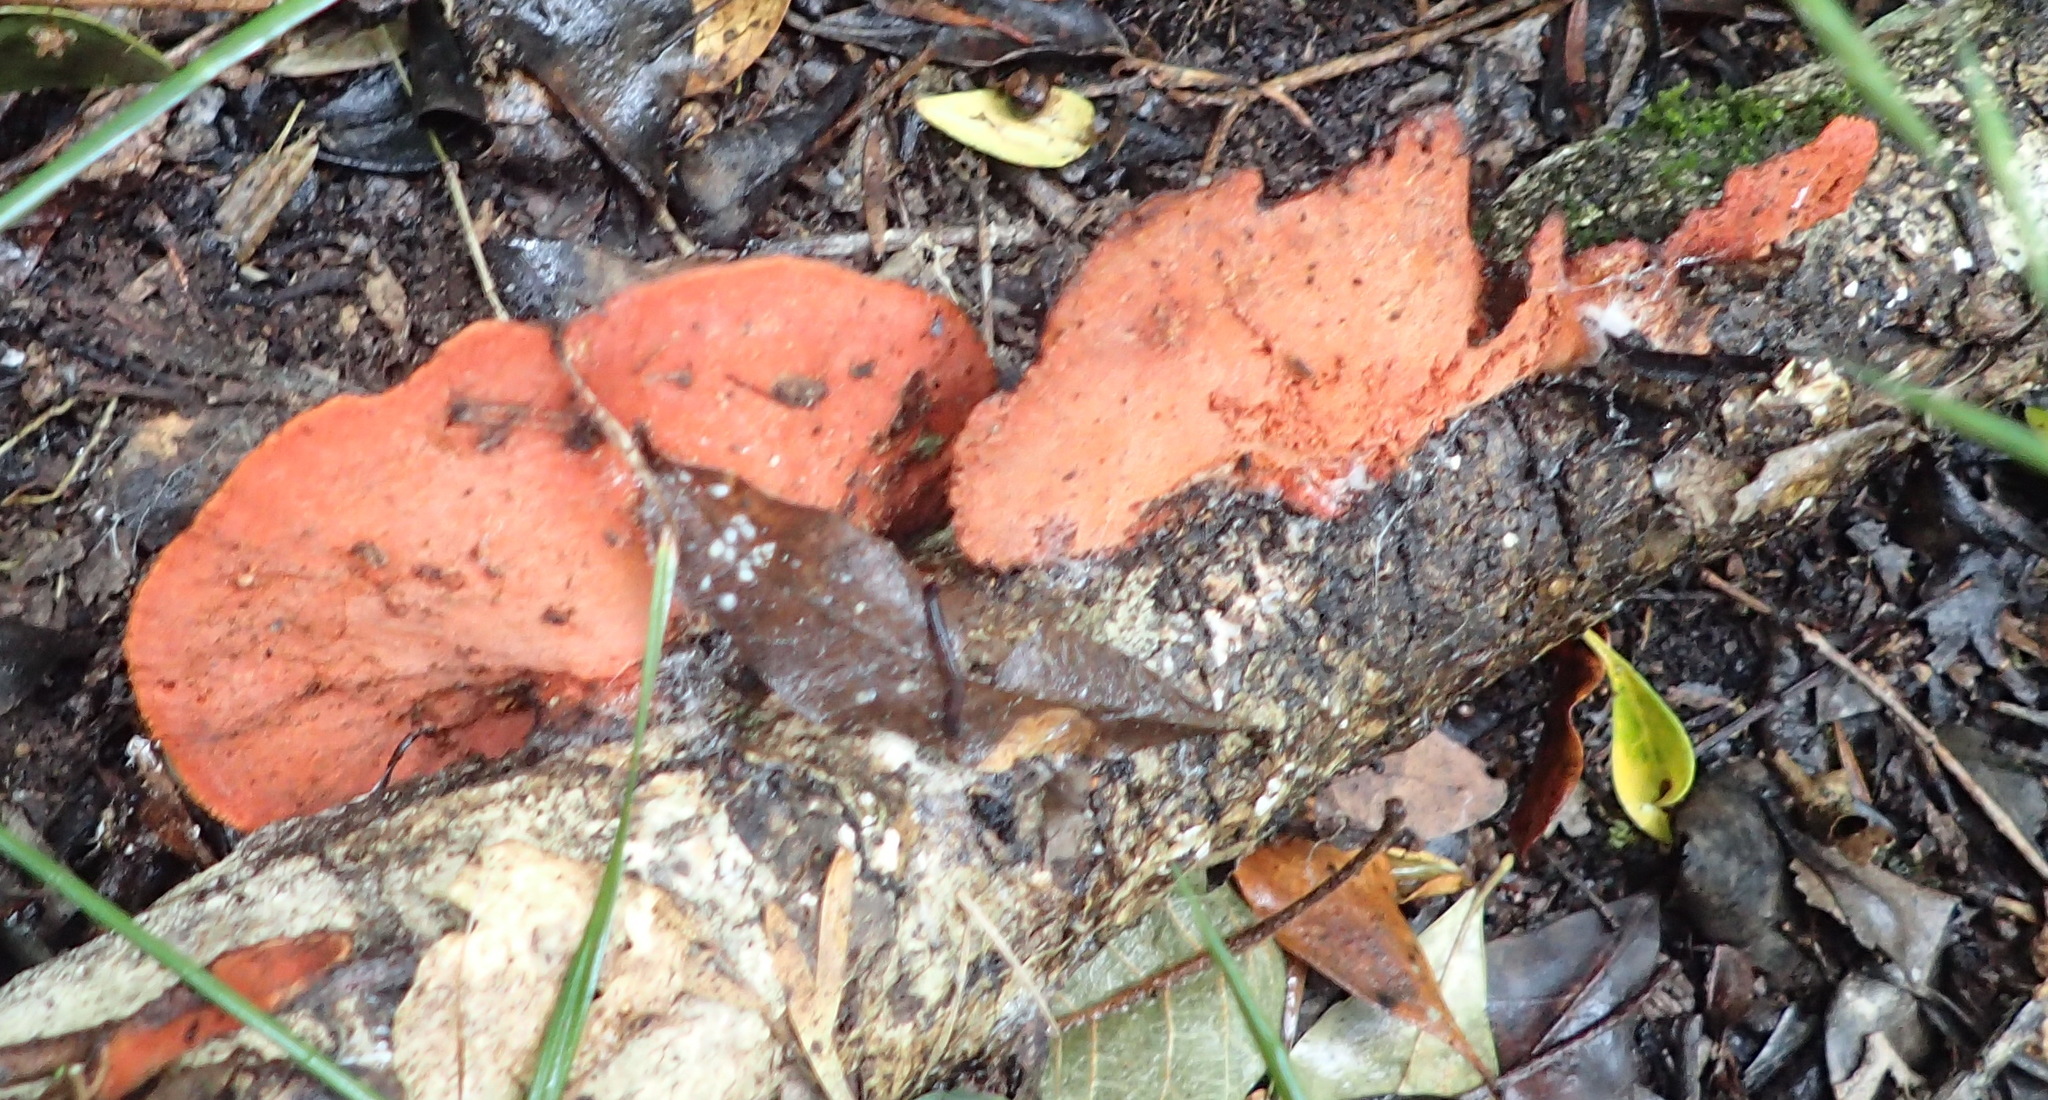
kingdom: Fungi
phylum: Basidiomycota
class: Agaricomycetes
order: Polyporales
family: Polyporaceae
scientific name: Polyporaceae
